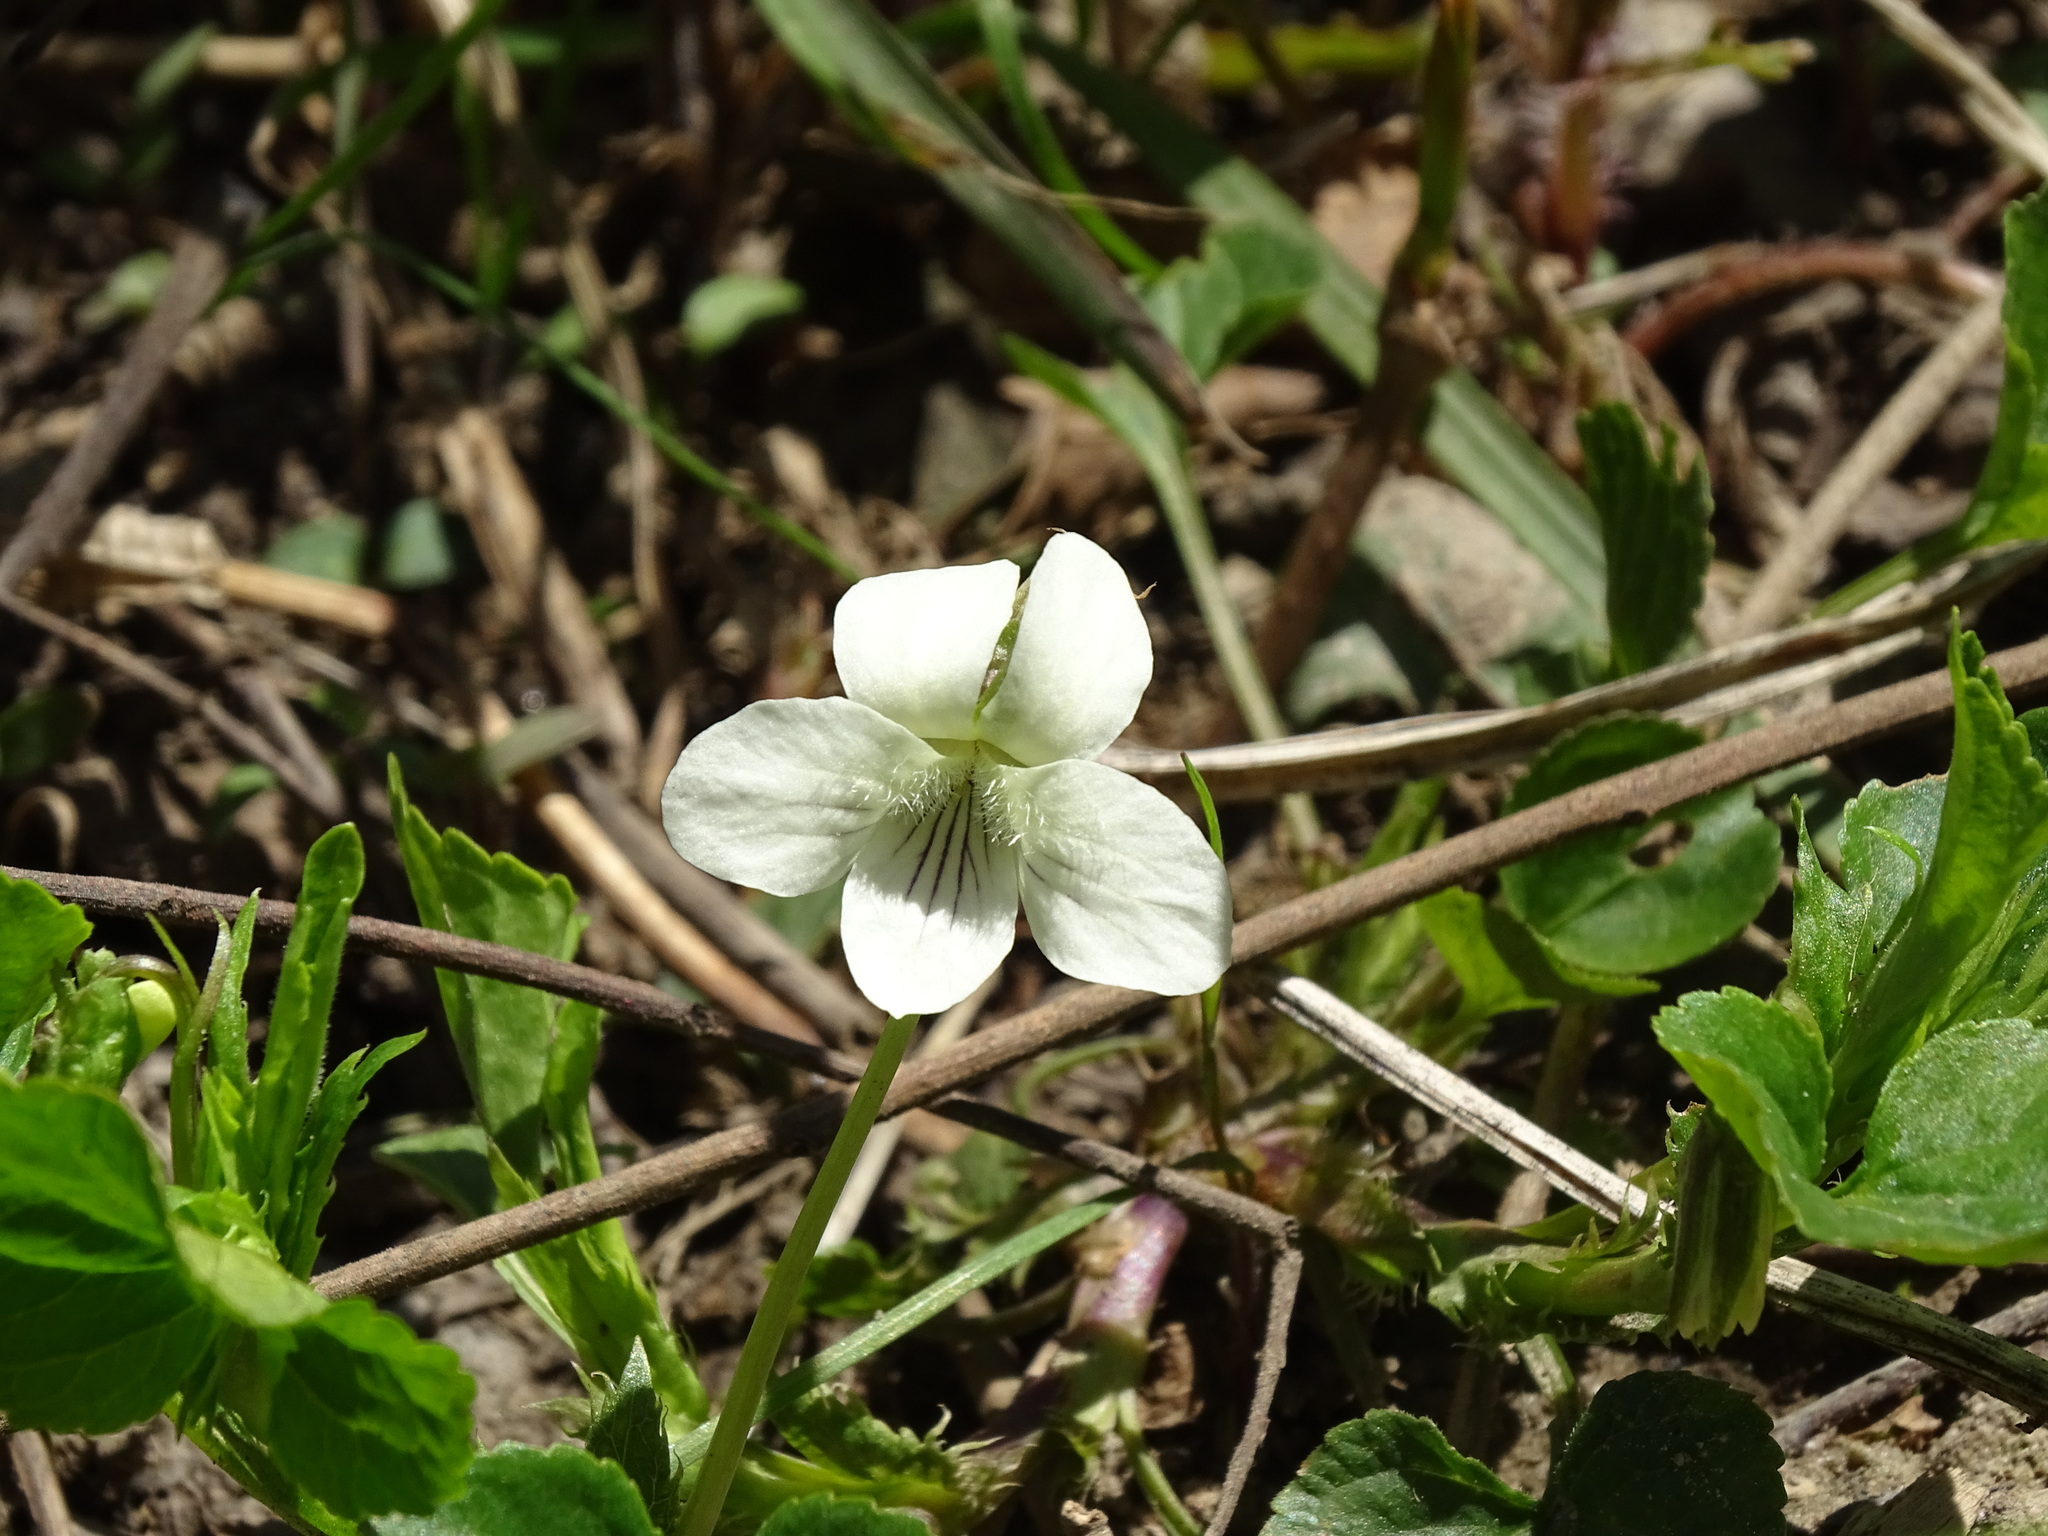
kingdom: Plantae
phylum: Tracheophyta
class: Magnoliopsida
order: Malpighiales
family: Violaceae
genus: Viola
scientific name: Viola striata
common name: Cream violet
